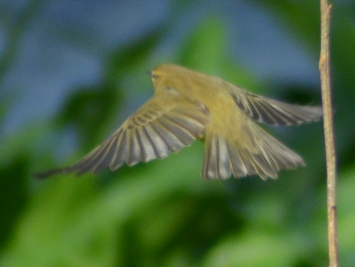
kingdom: Animalia
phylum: Chordata
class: Aves
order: Passeriformes
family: Phylloscopidae
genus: Phylloscopus
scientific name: Phylloscopus collybita
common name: Common chiffchaff
